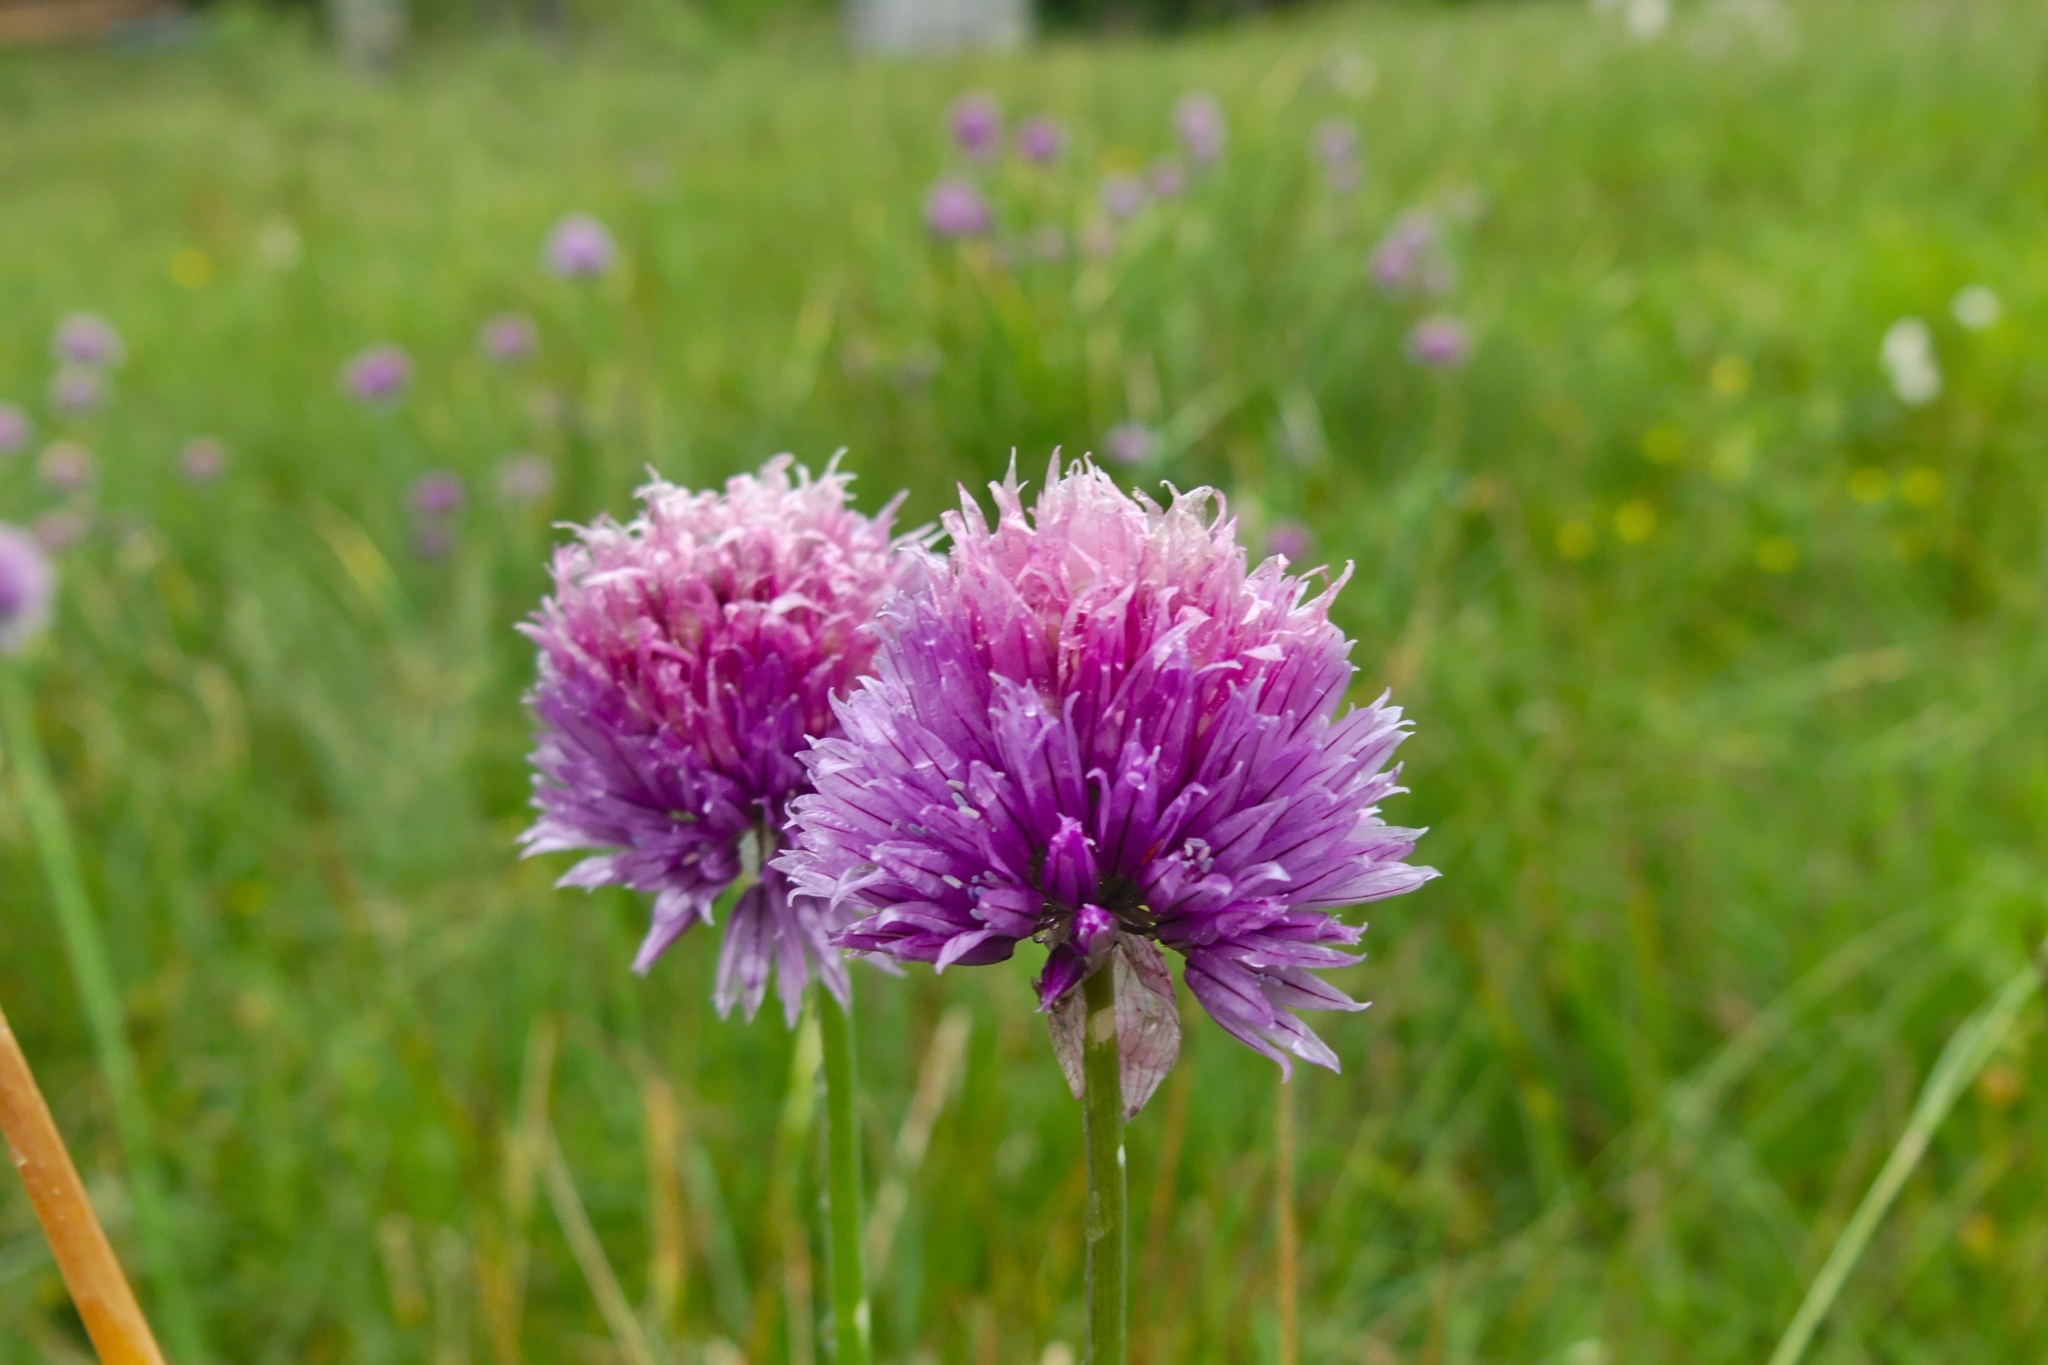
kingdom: Plantae
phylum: Tracheophyta
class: Liliopsida
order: Asparagales
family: Amaryllidaceae
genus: Allium
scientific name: Allium schoenoprasum
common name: Chives
